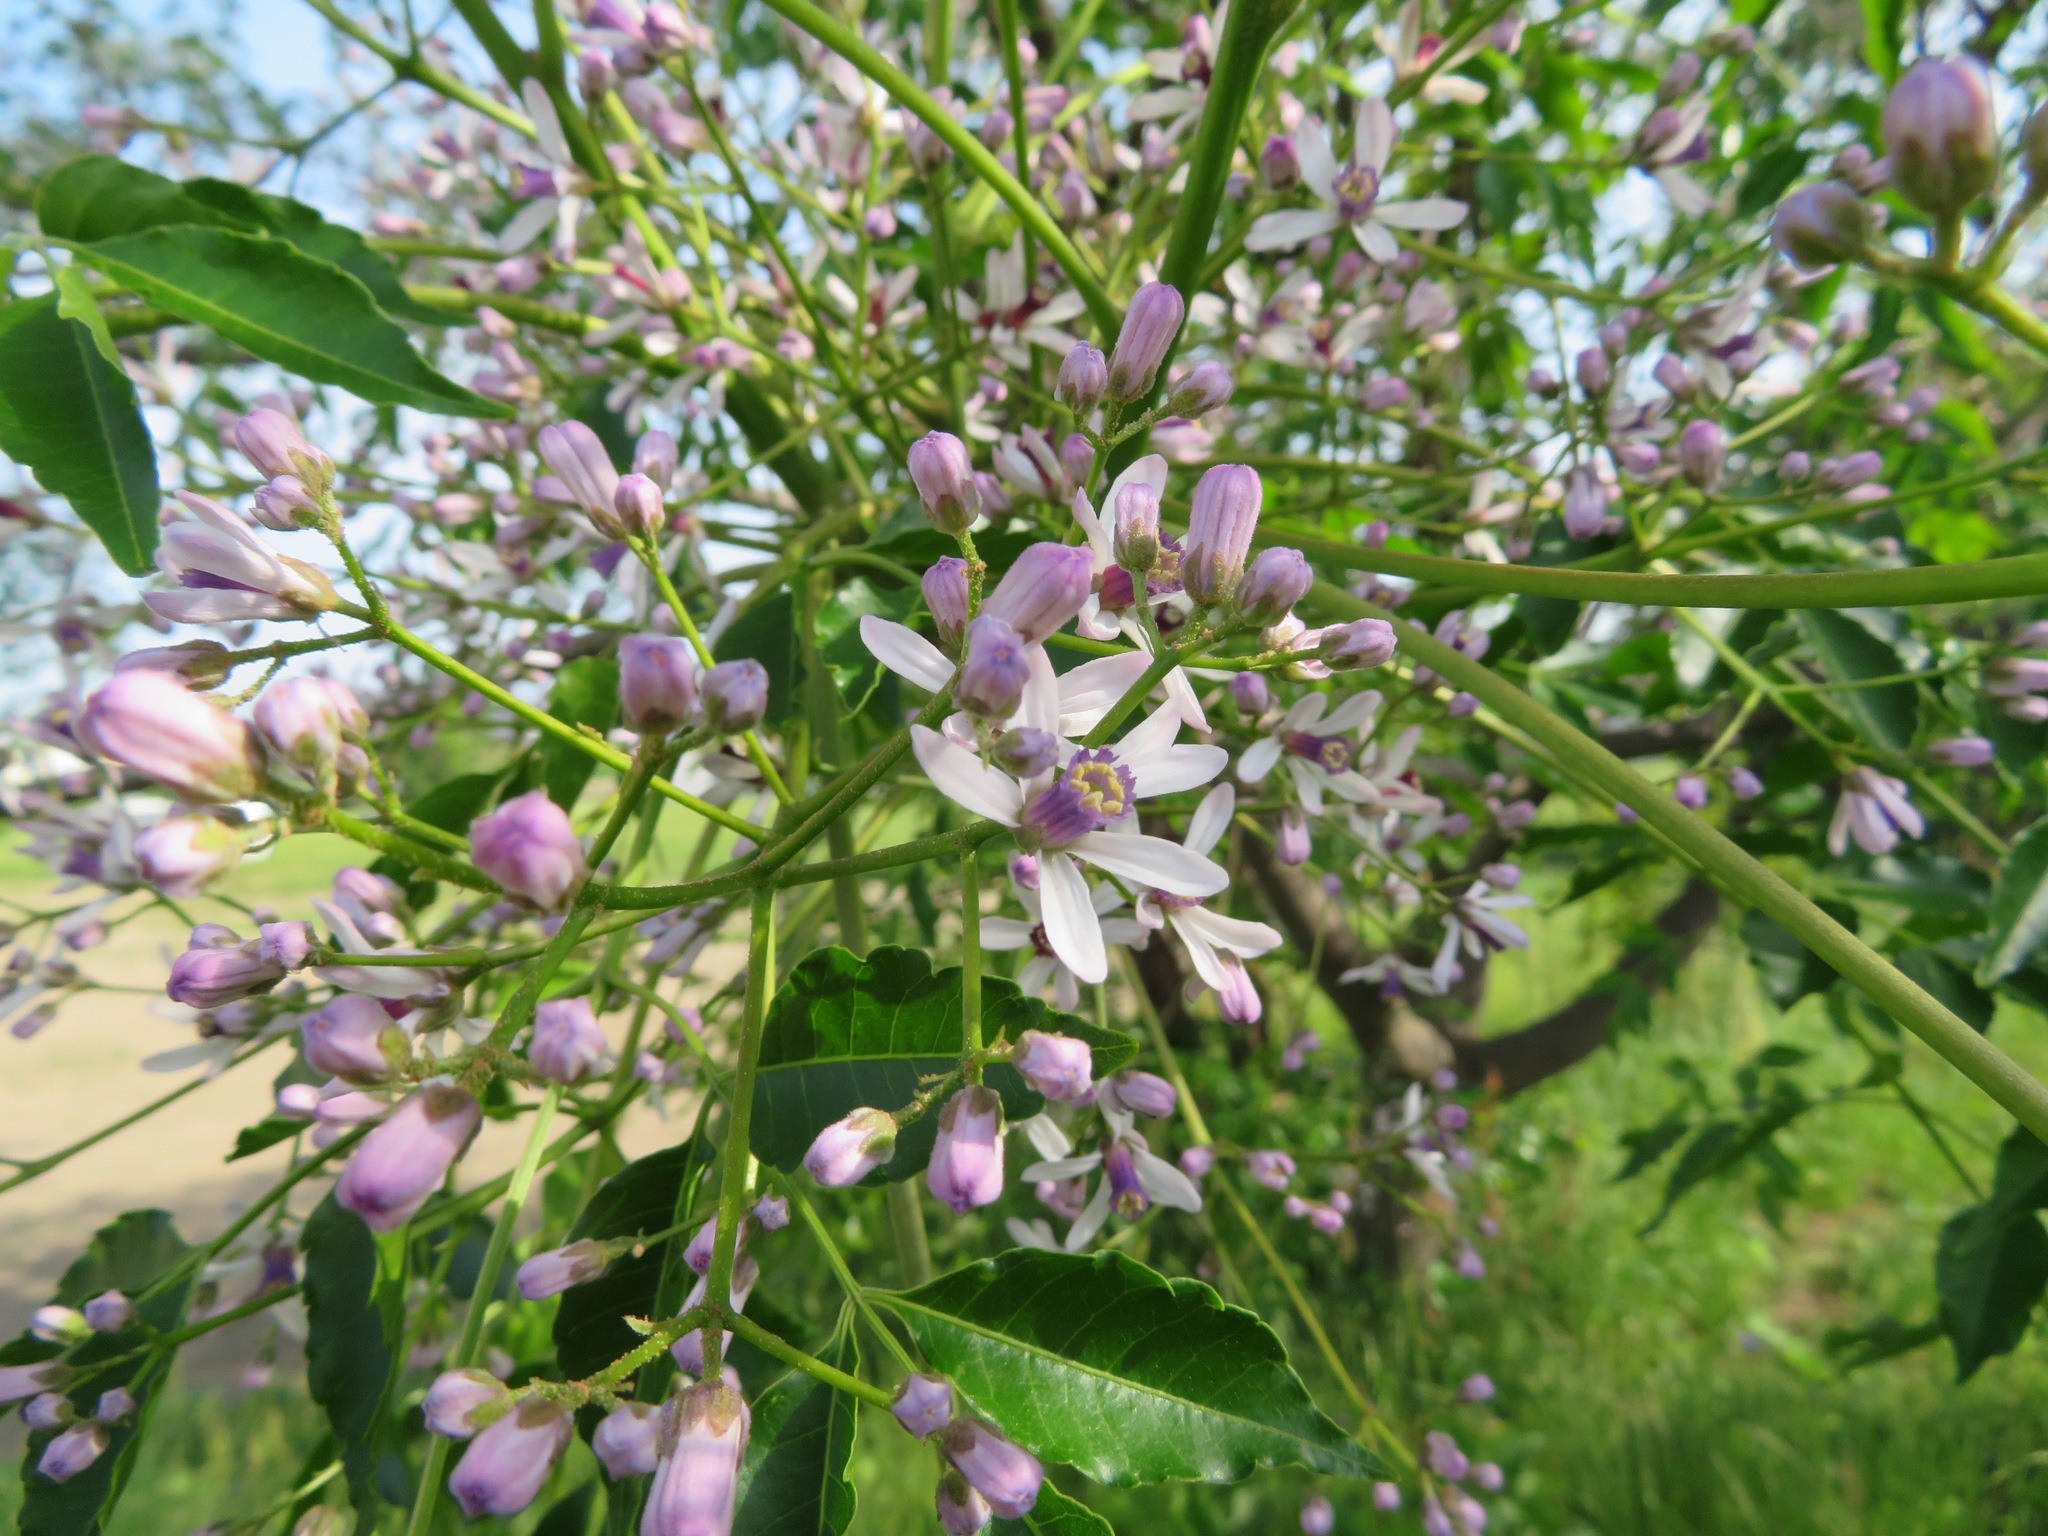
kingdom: Plantae
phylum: Tracheophyta
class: Magnoliopsida
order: Sapindales
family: Meliaceae
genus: Melia
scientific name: Melia azedarach
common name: Chinaberrytree
